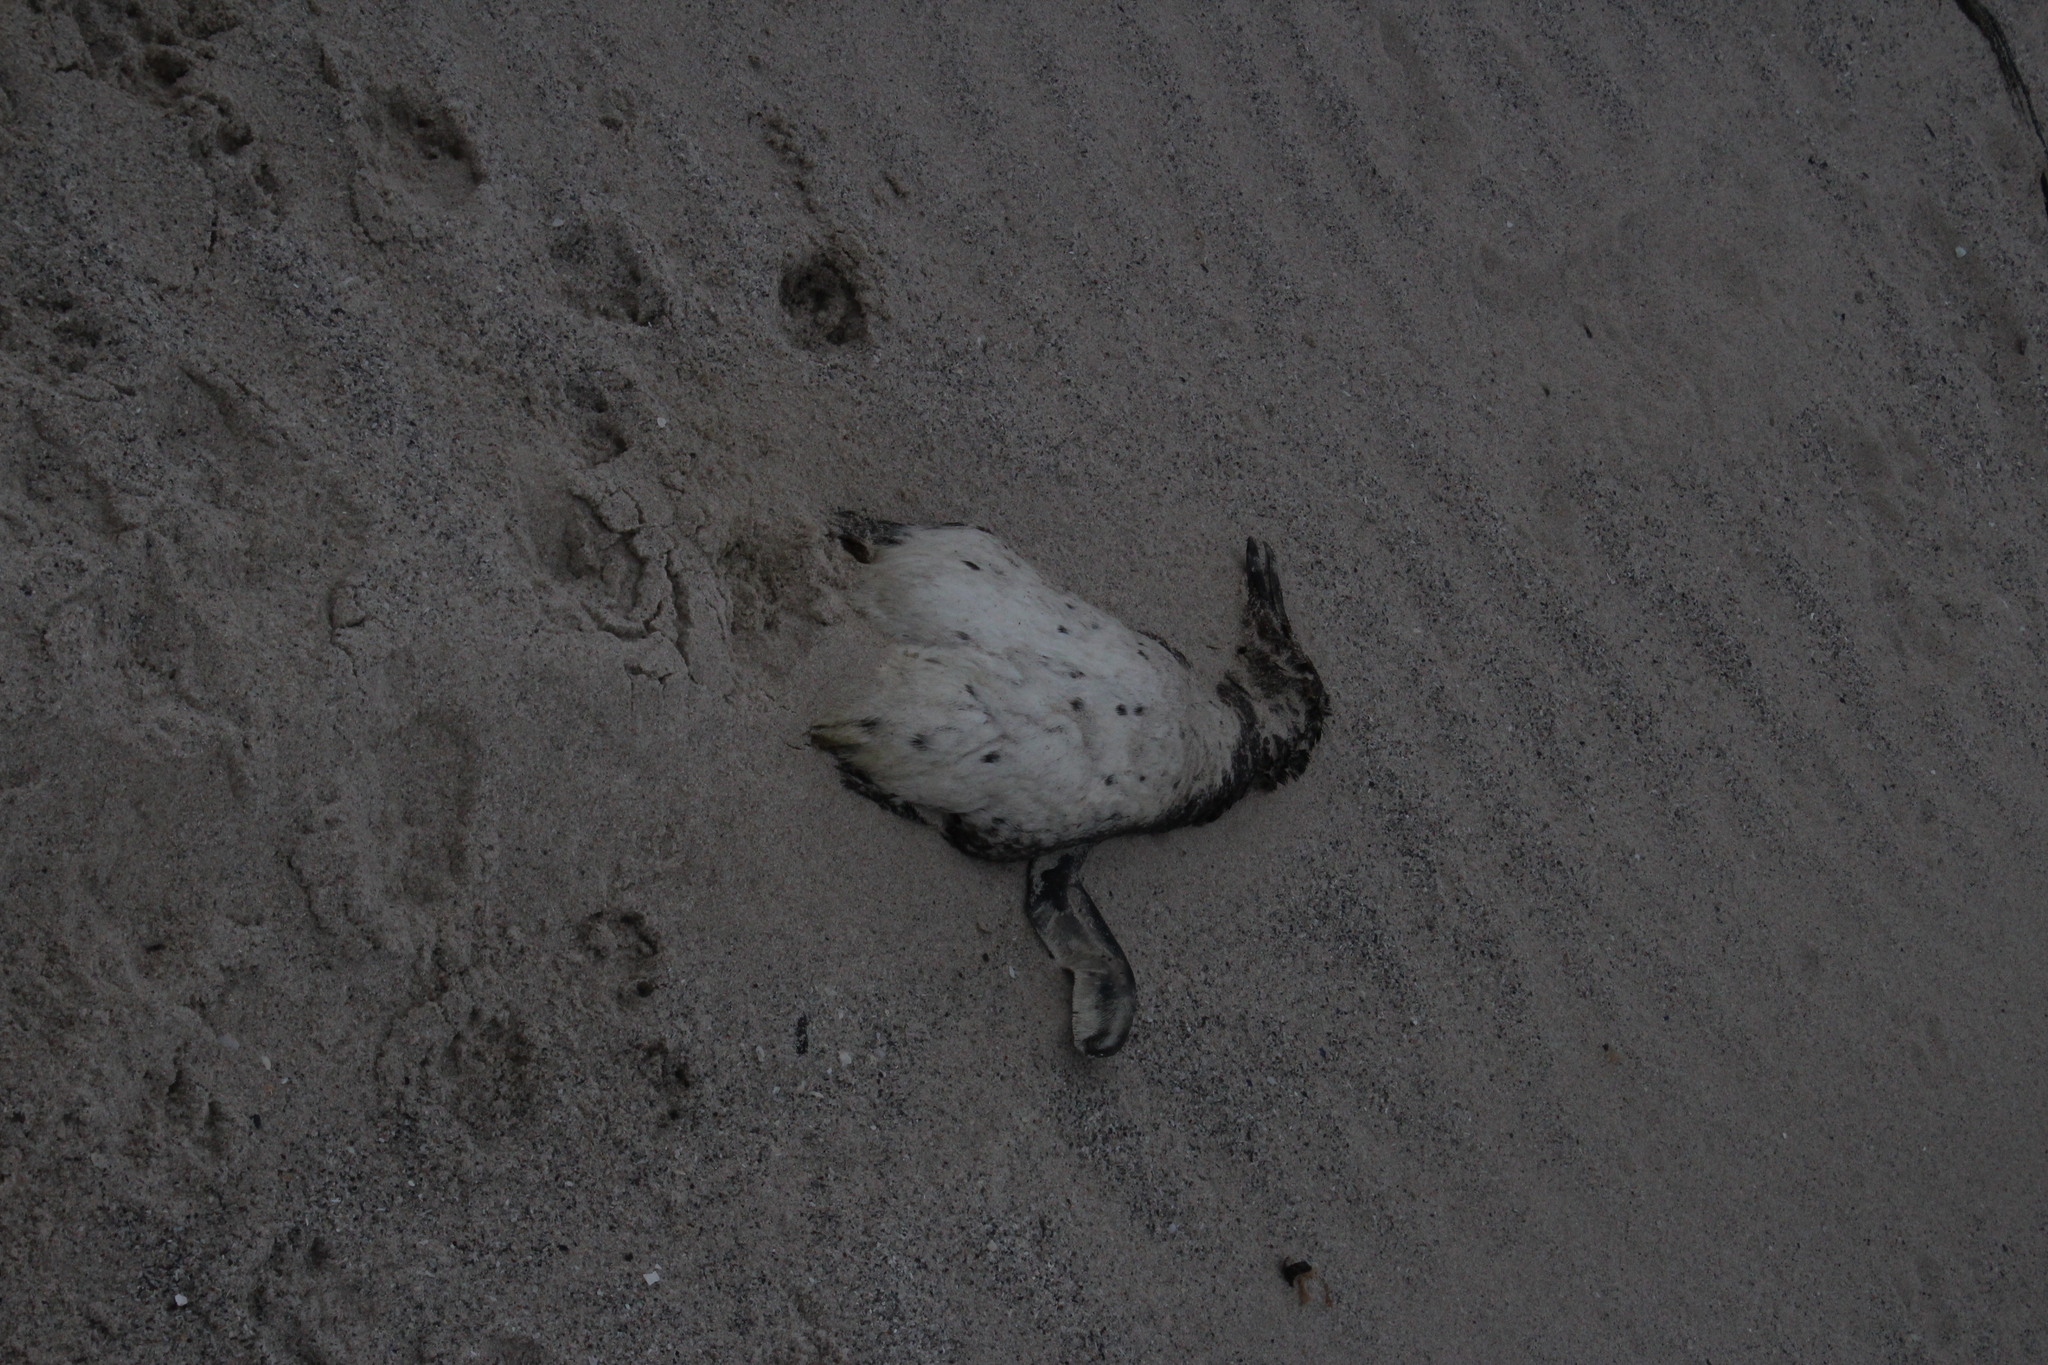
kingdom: Animalia
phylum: Chordata
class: Aves
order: Sphenisciformes
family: Spheniscidae
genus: Spheniscus
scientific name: Spheniscus demersus
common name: African penguin
